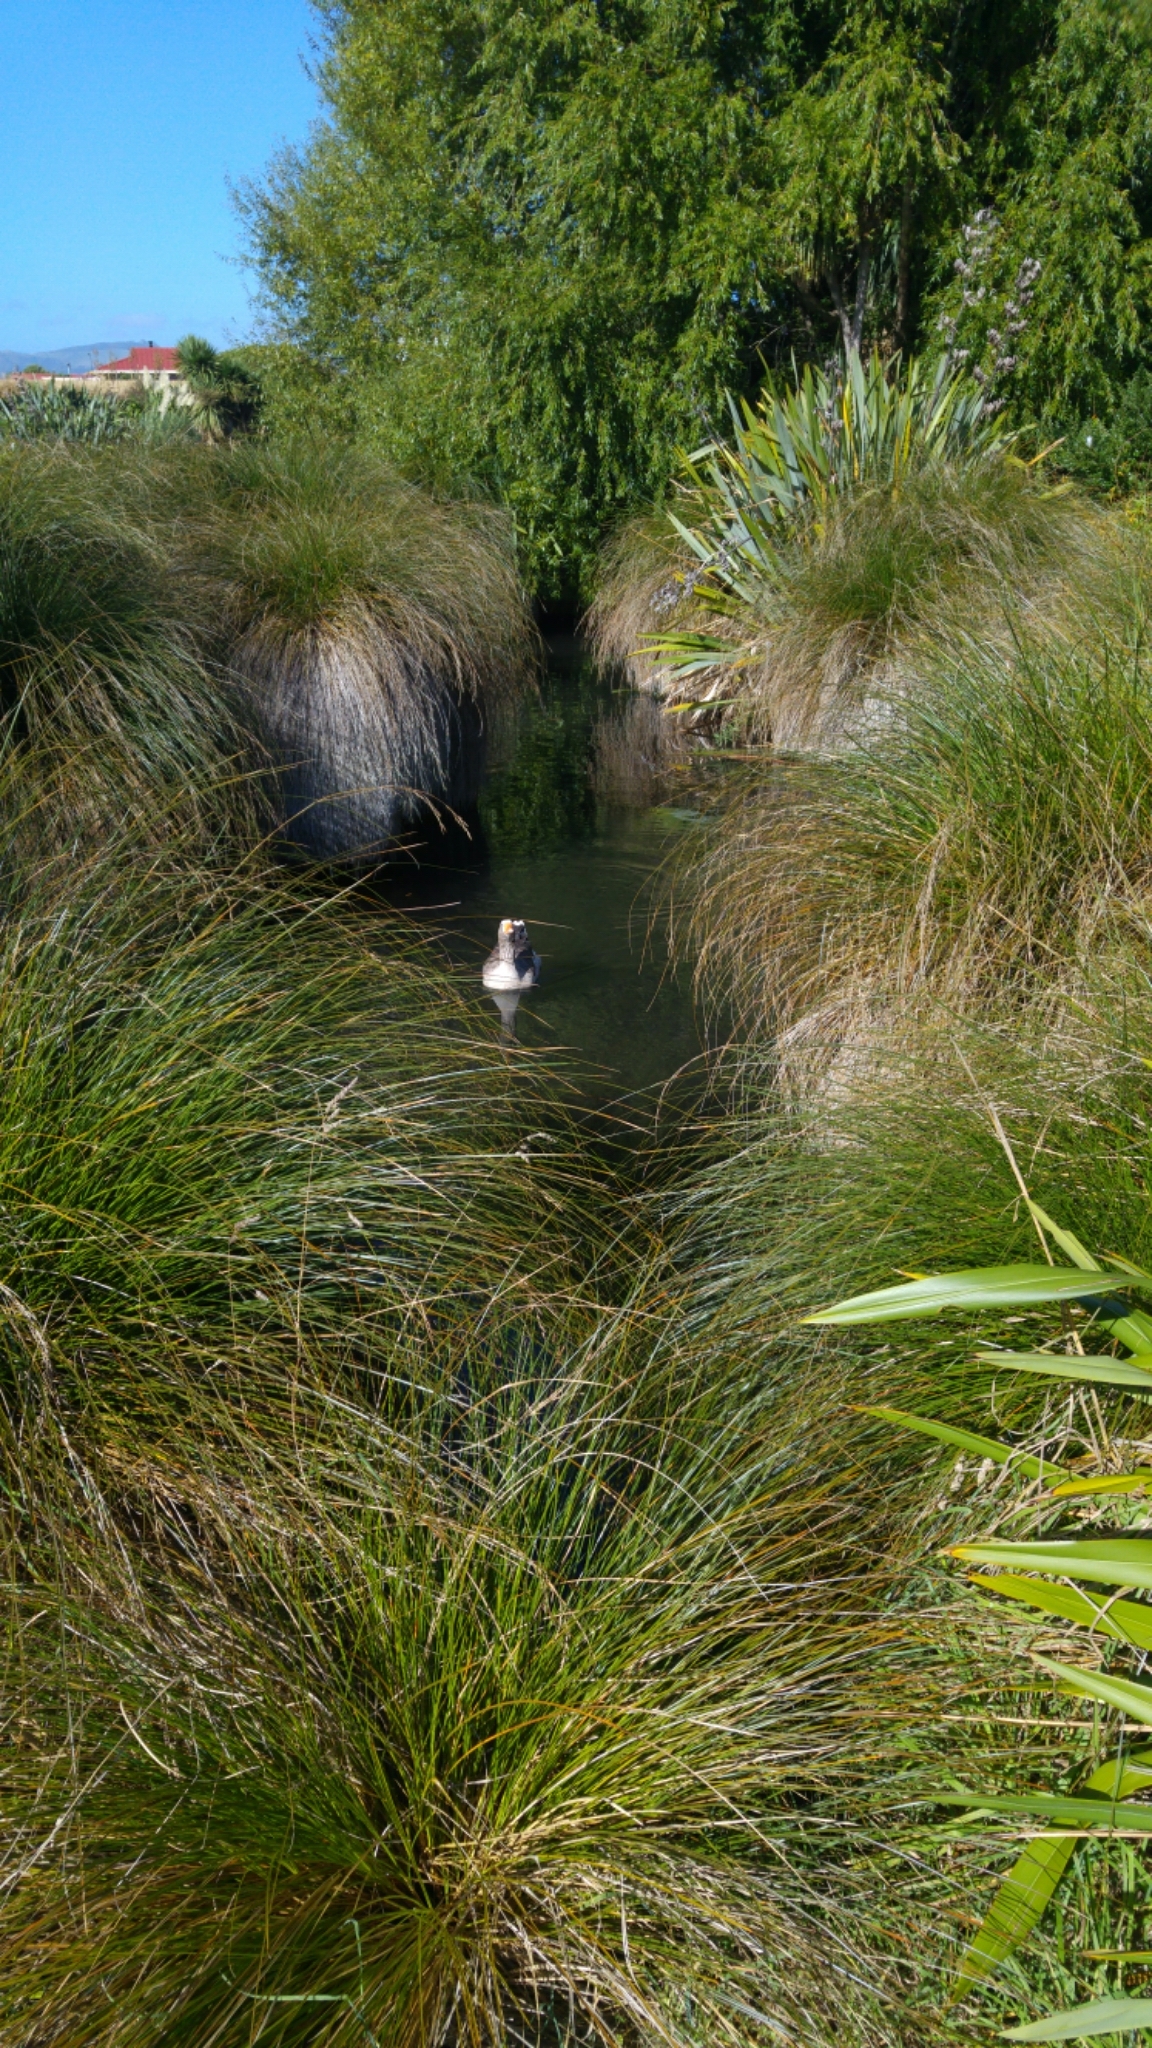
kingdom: Animalia
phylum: Chordata
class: Aves
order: Anseriformes
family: Anatidae
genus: Anser
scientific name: Anser anser
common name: Greylag goose
